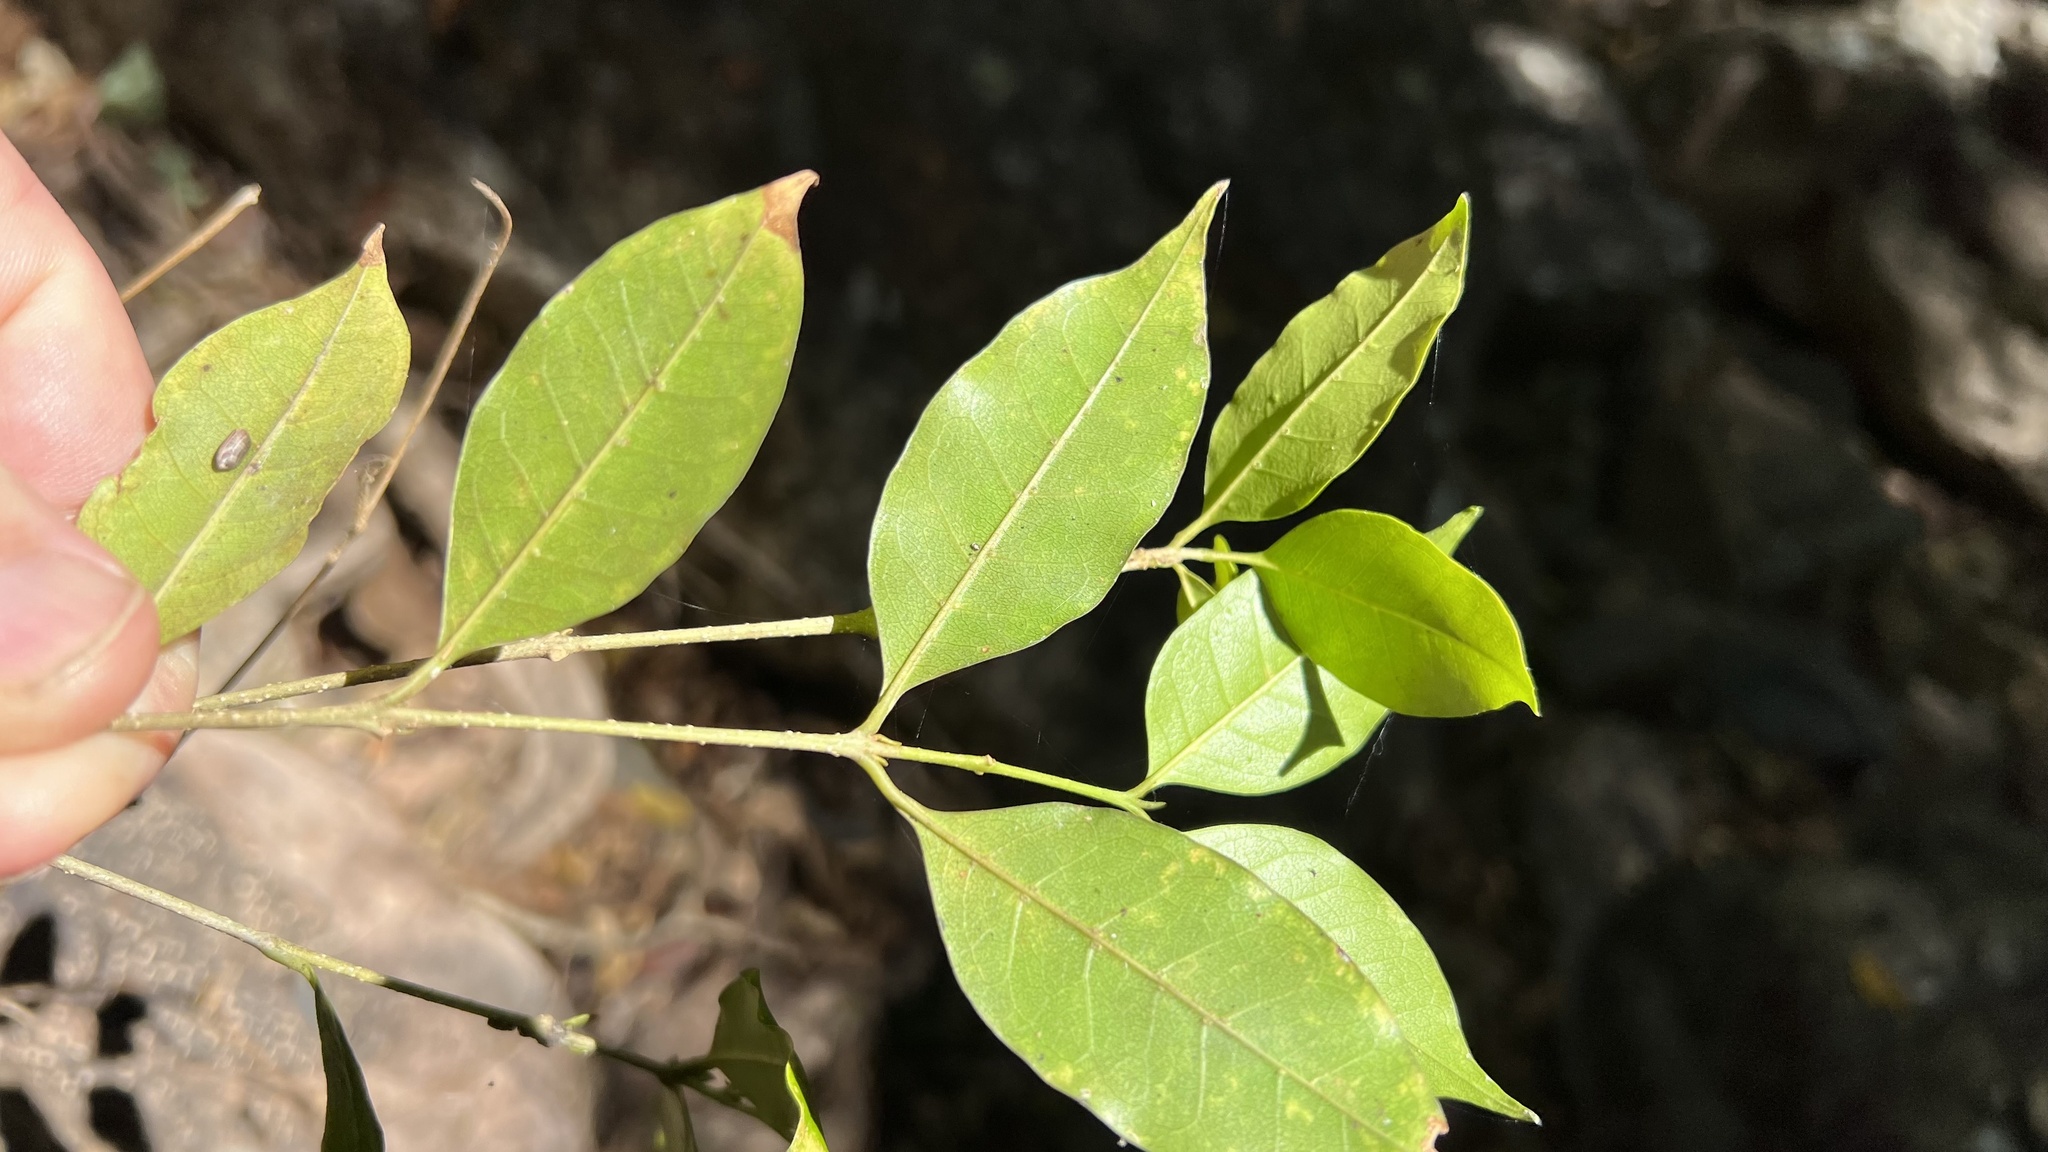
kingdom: Plantae
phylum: Tracheophyta
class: Magnoliopsida
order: Lamiales
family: Oleaceae
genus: Olea
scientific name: Olea paniculata
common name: Australian olive
